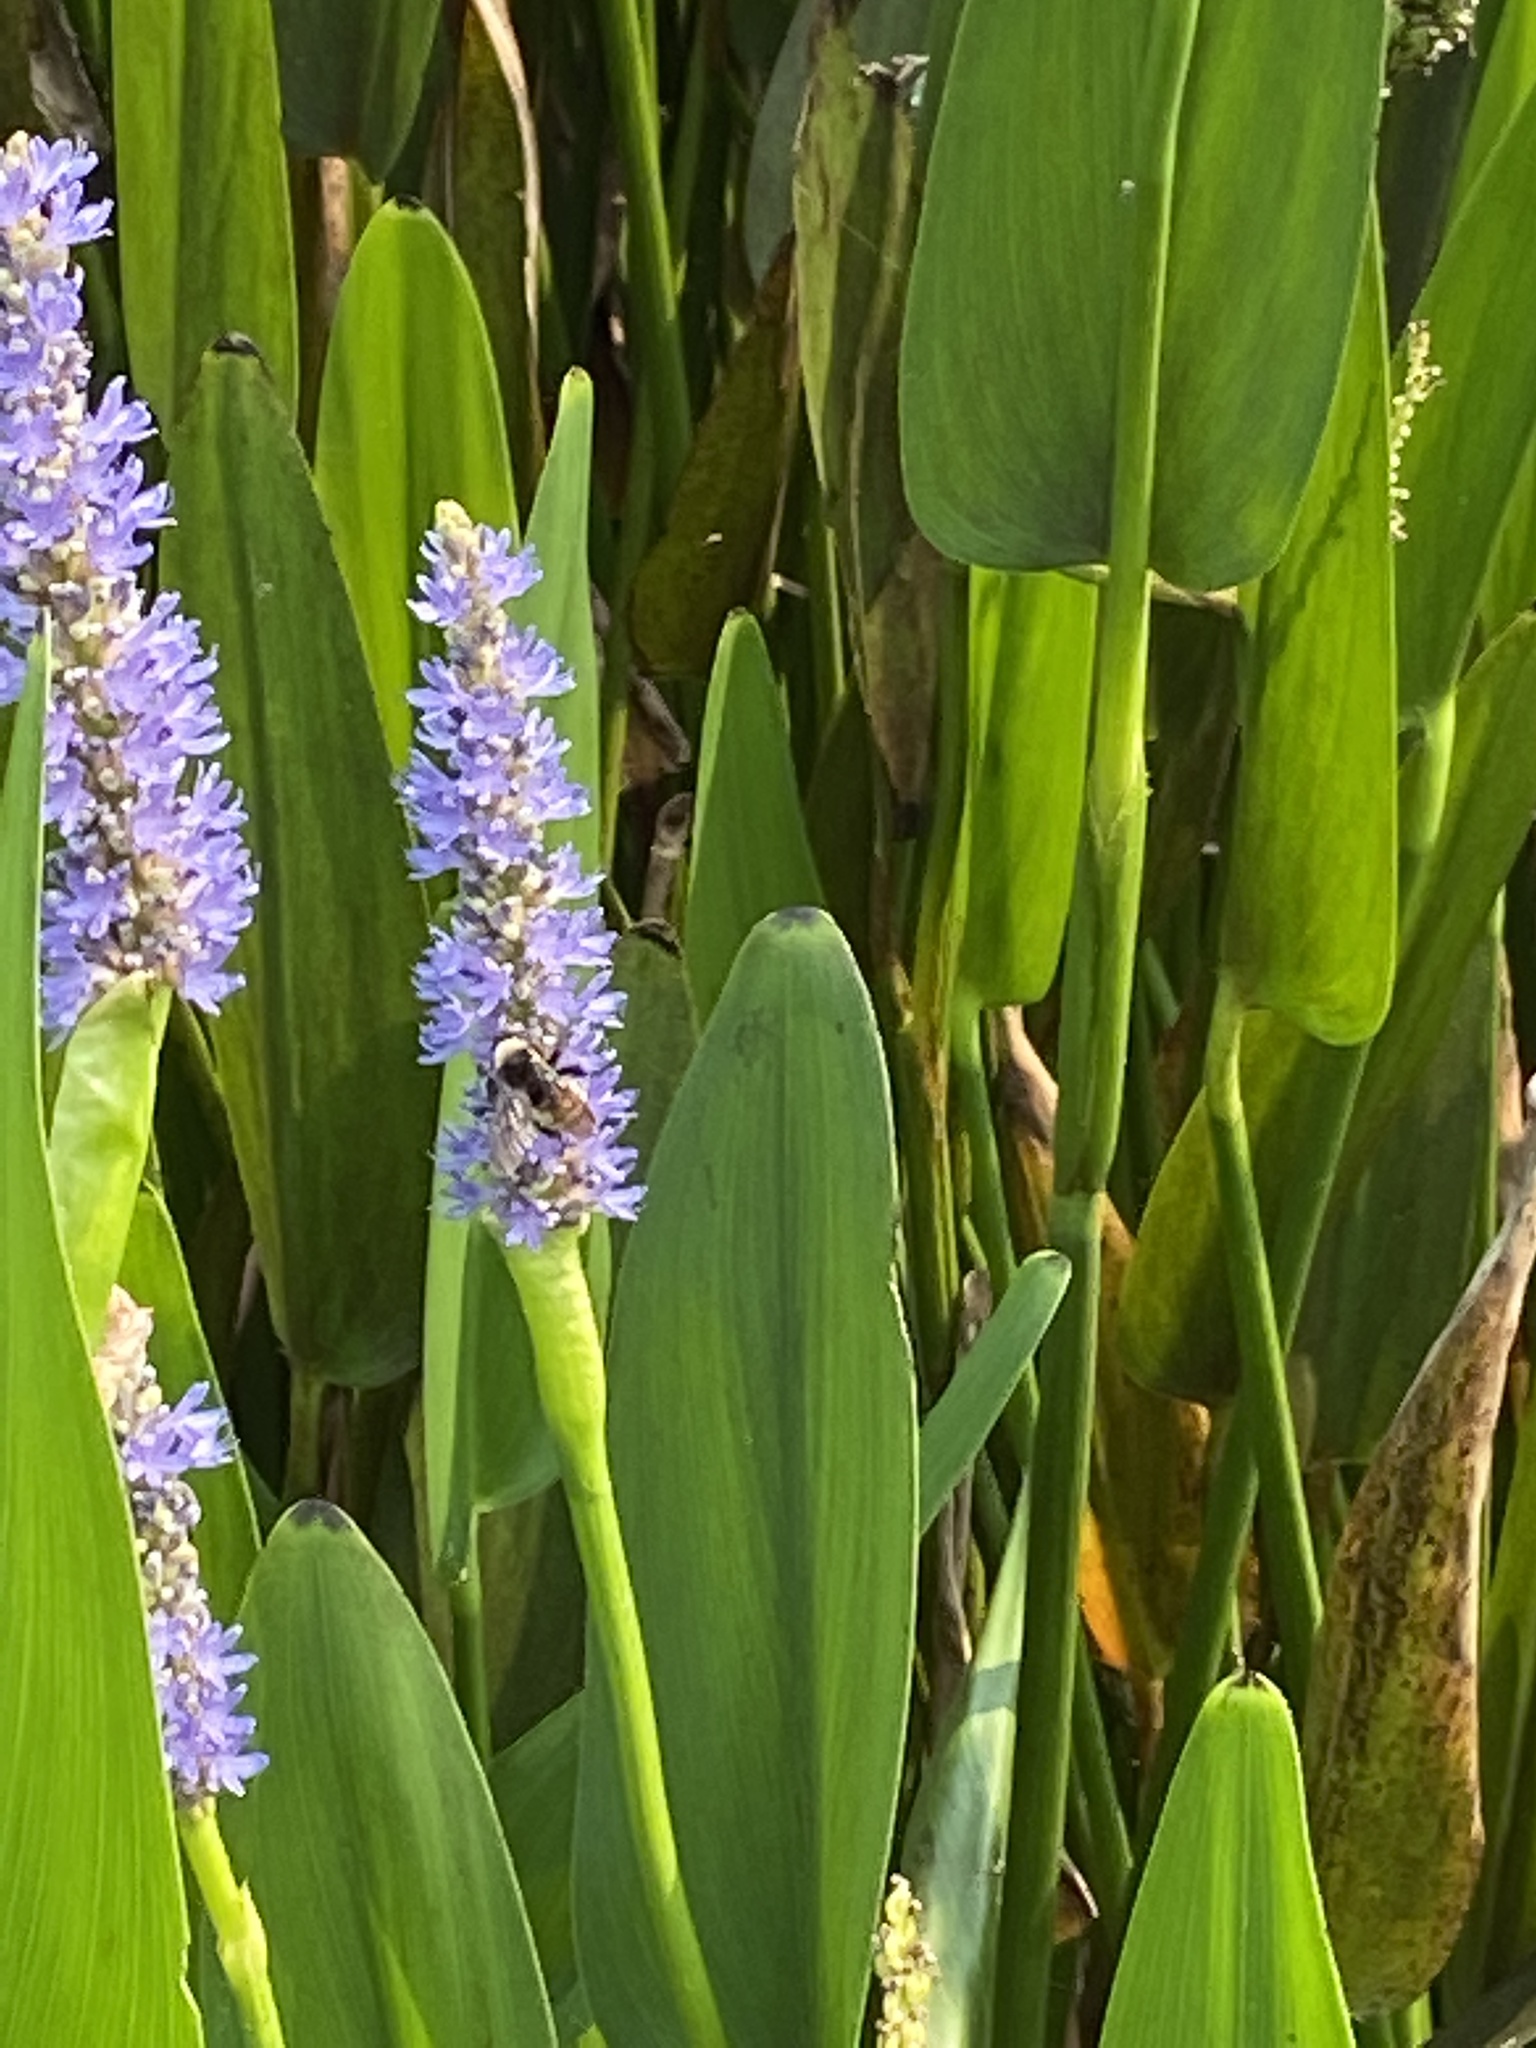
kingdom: Animalia
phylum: Arthropoda
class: Insecta
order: Hymenoptera
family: Apidae
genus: Apis
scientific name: Apis mellifera
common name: Honey bee
